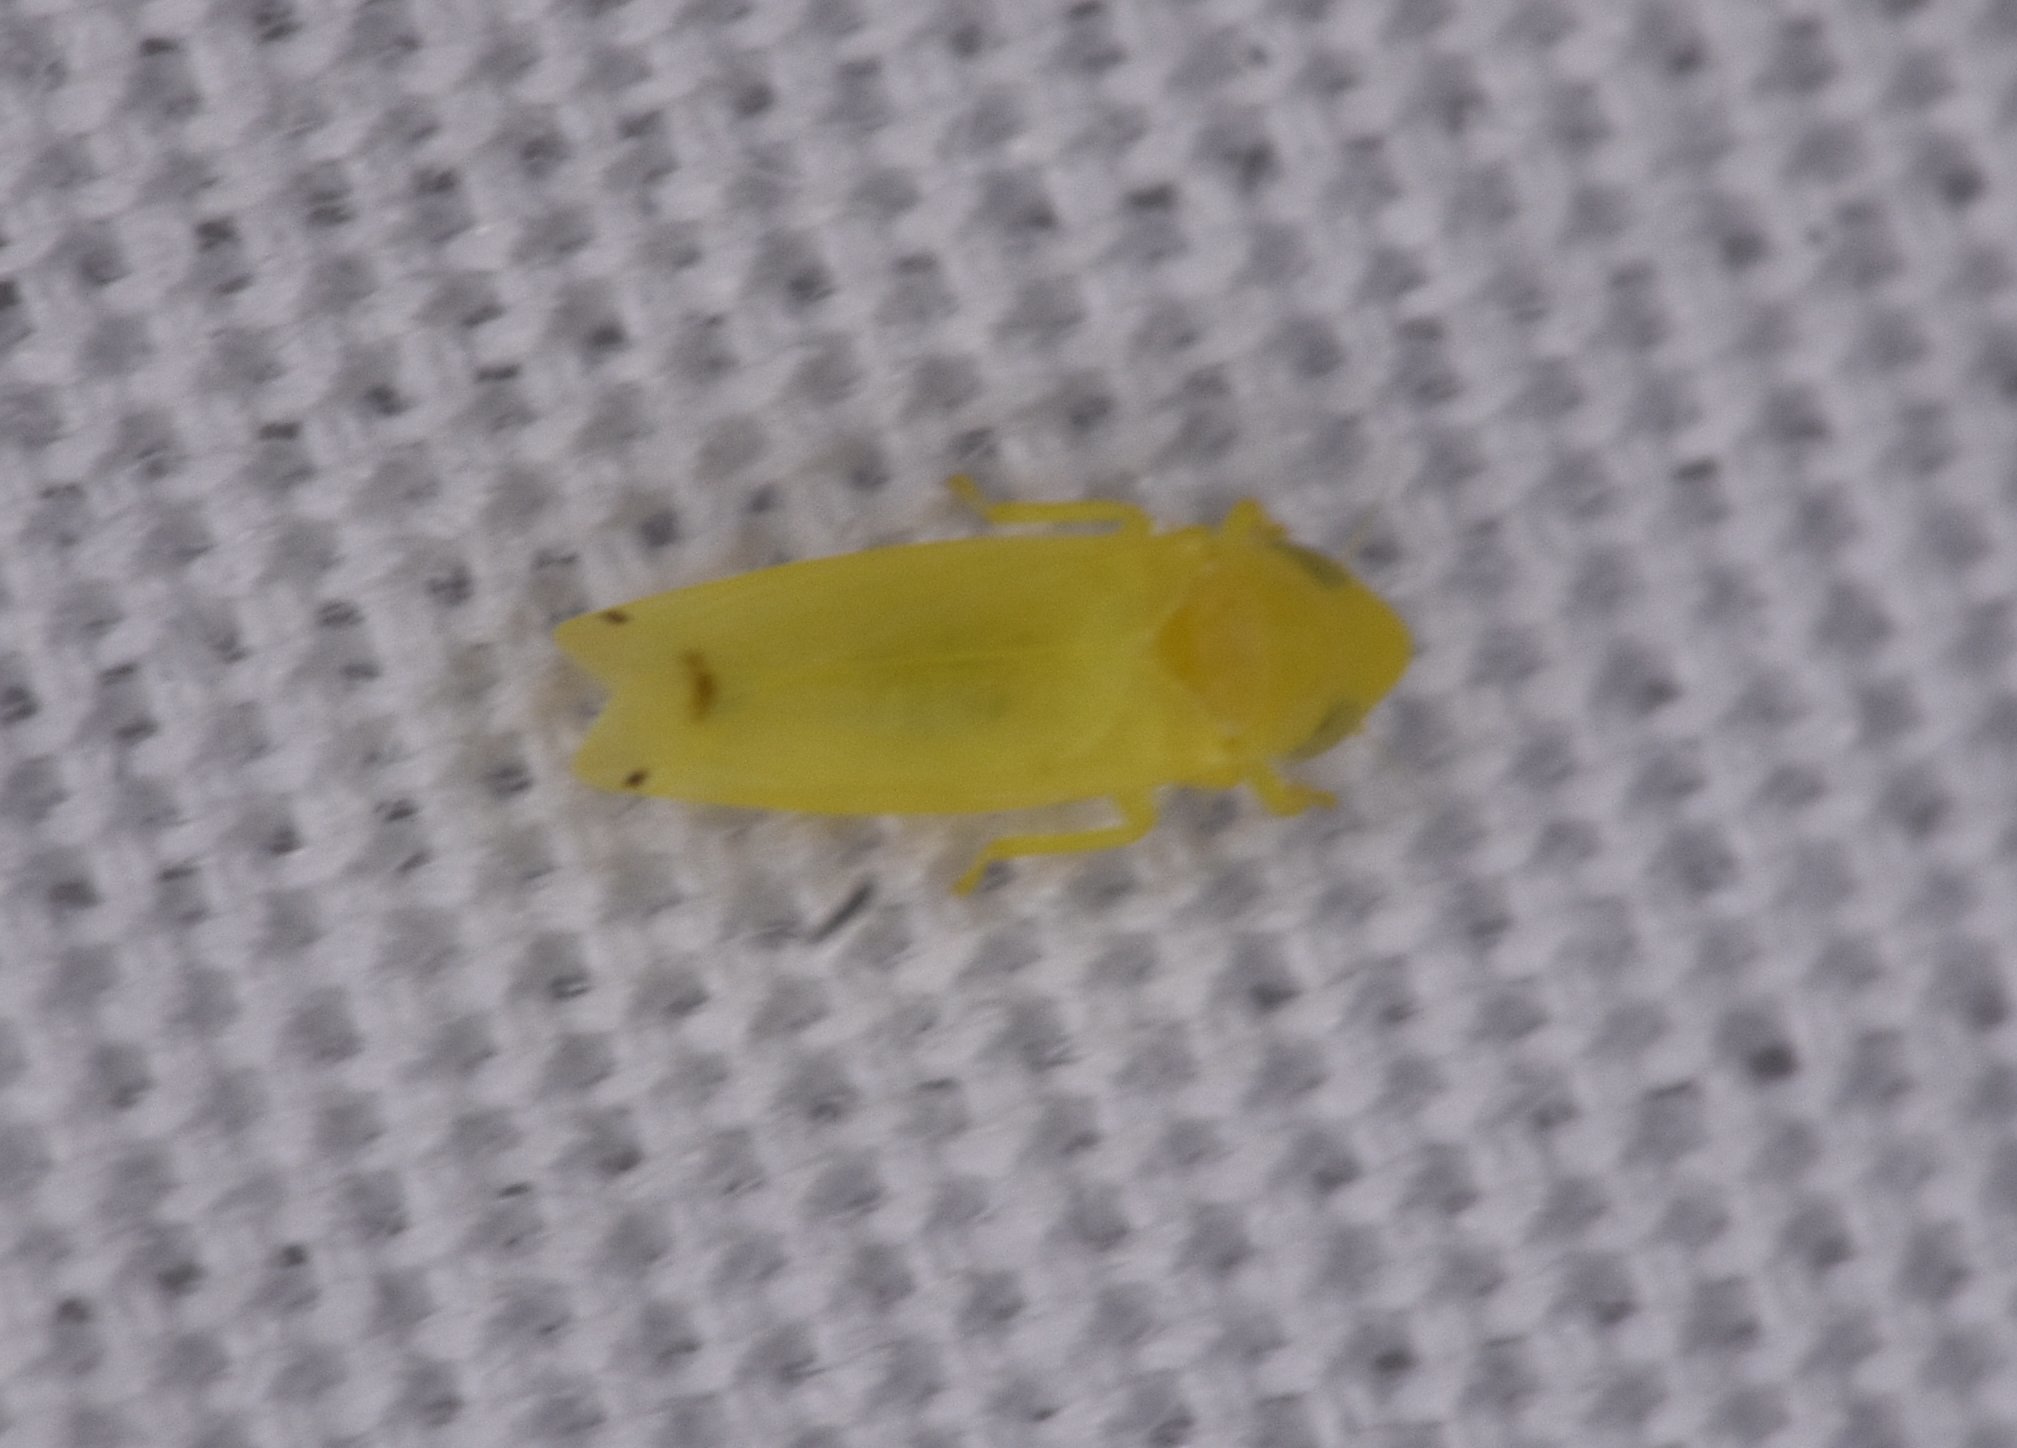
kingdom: Animalia
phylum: Arthropoda
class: Insecta
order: Hemiptera
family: Cicadellidae
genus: Dikrella
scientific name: Dikrella cedrelae
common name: Leafhopper
